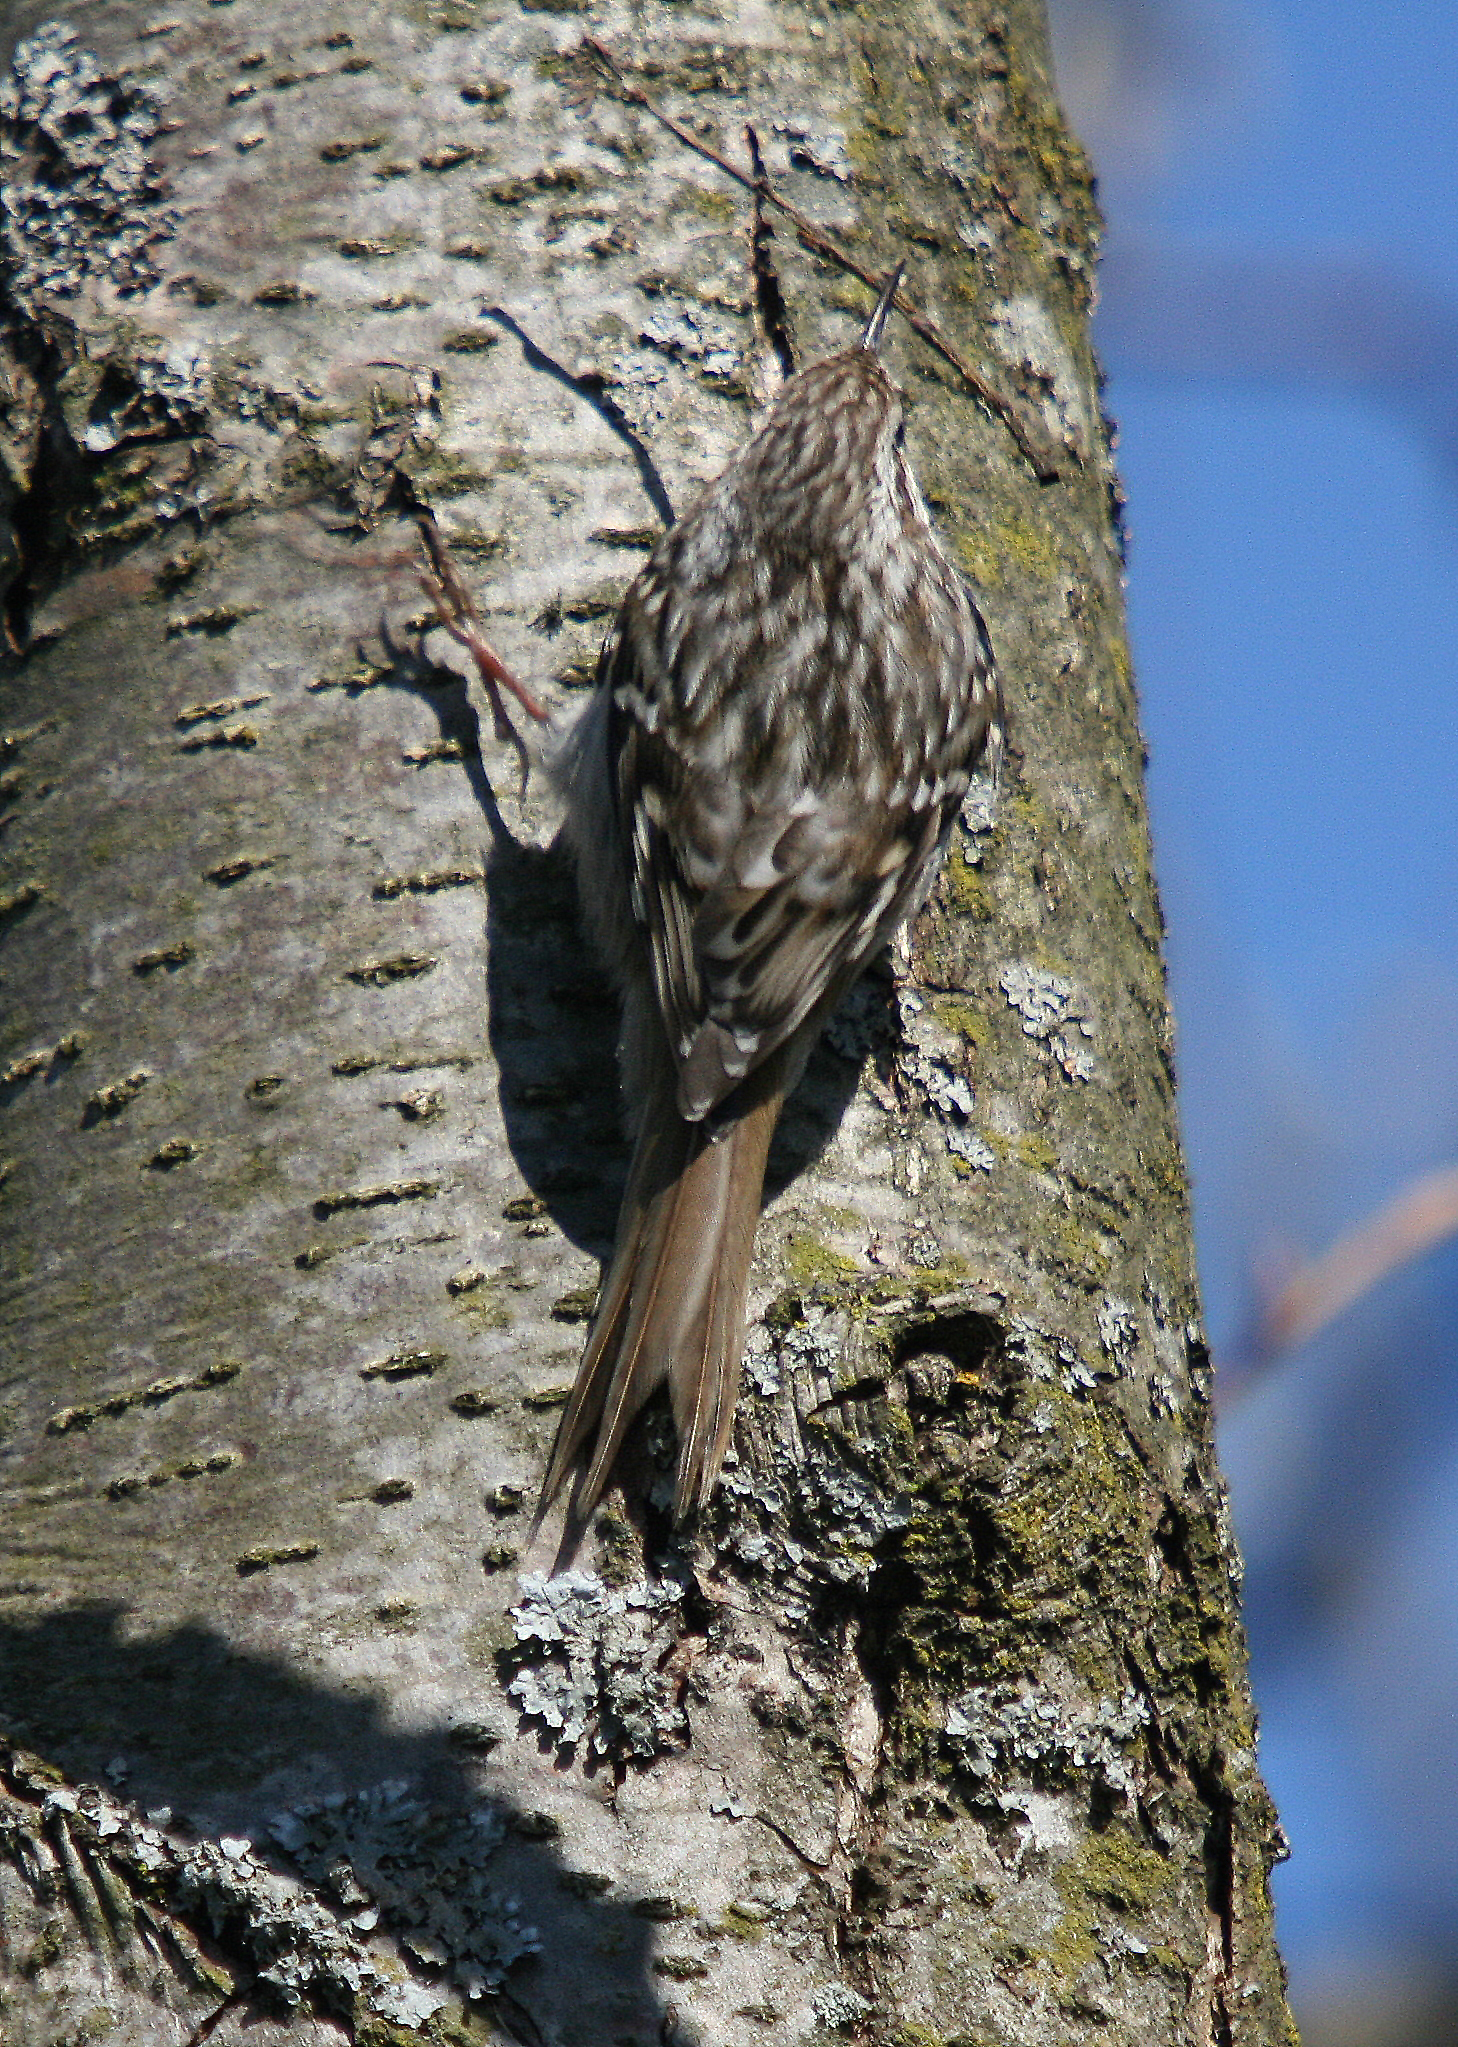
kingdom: Animalia
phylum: Chordata
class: Aves
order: Passeriformes
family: Certhiidae
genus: Certhia
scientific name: Certhia brachydactyla
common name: Short-toed treecreeper
